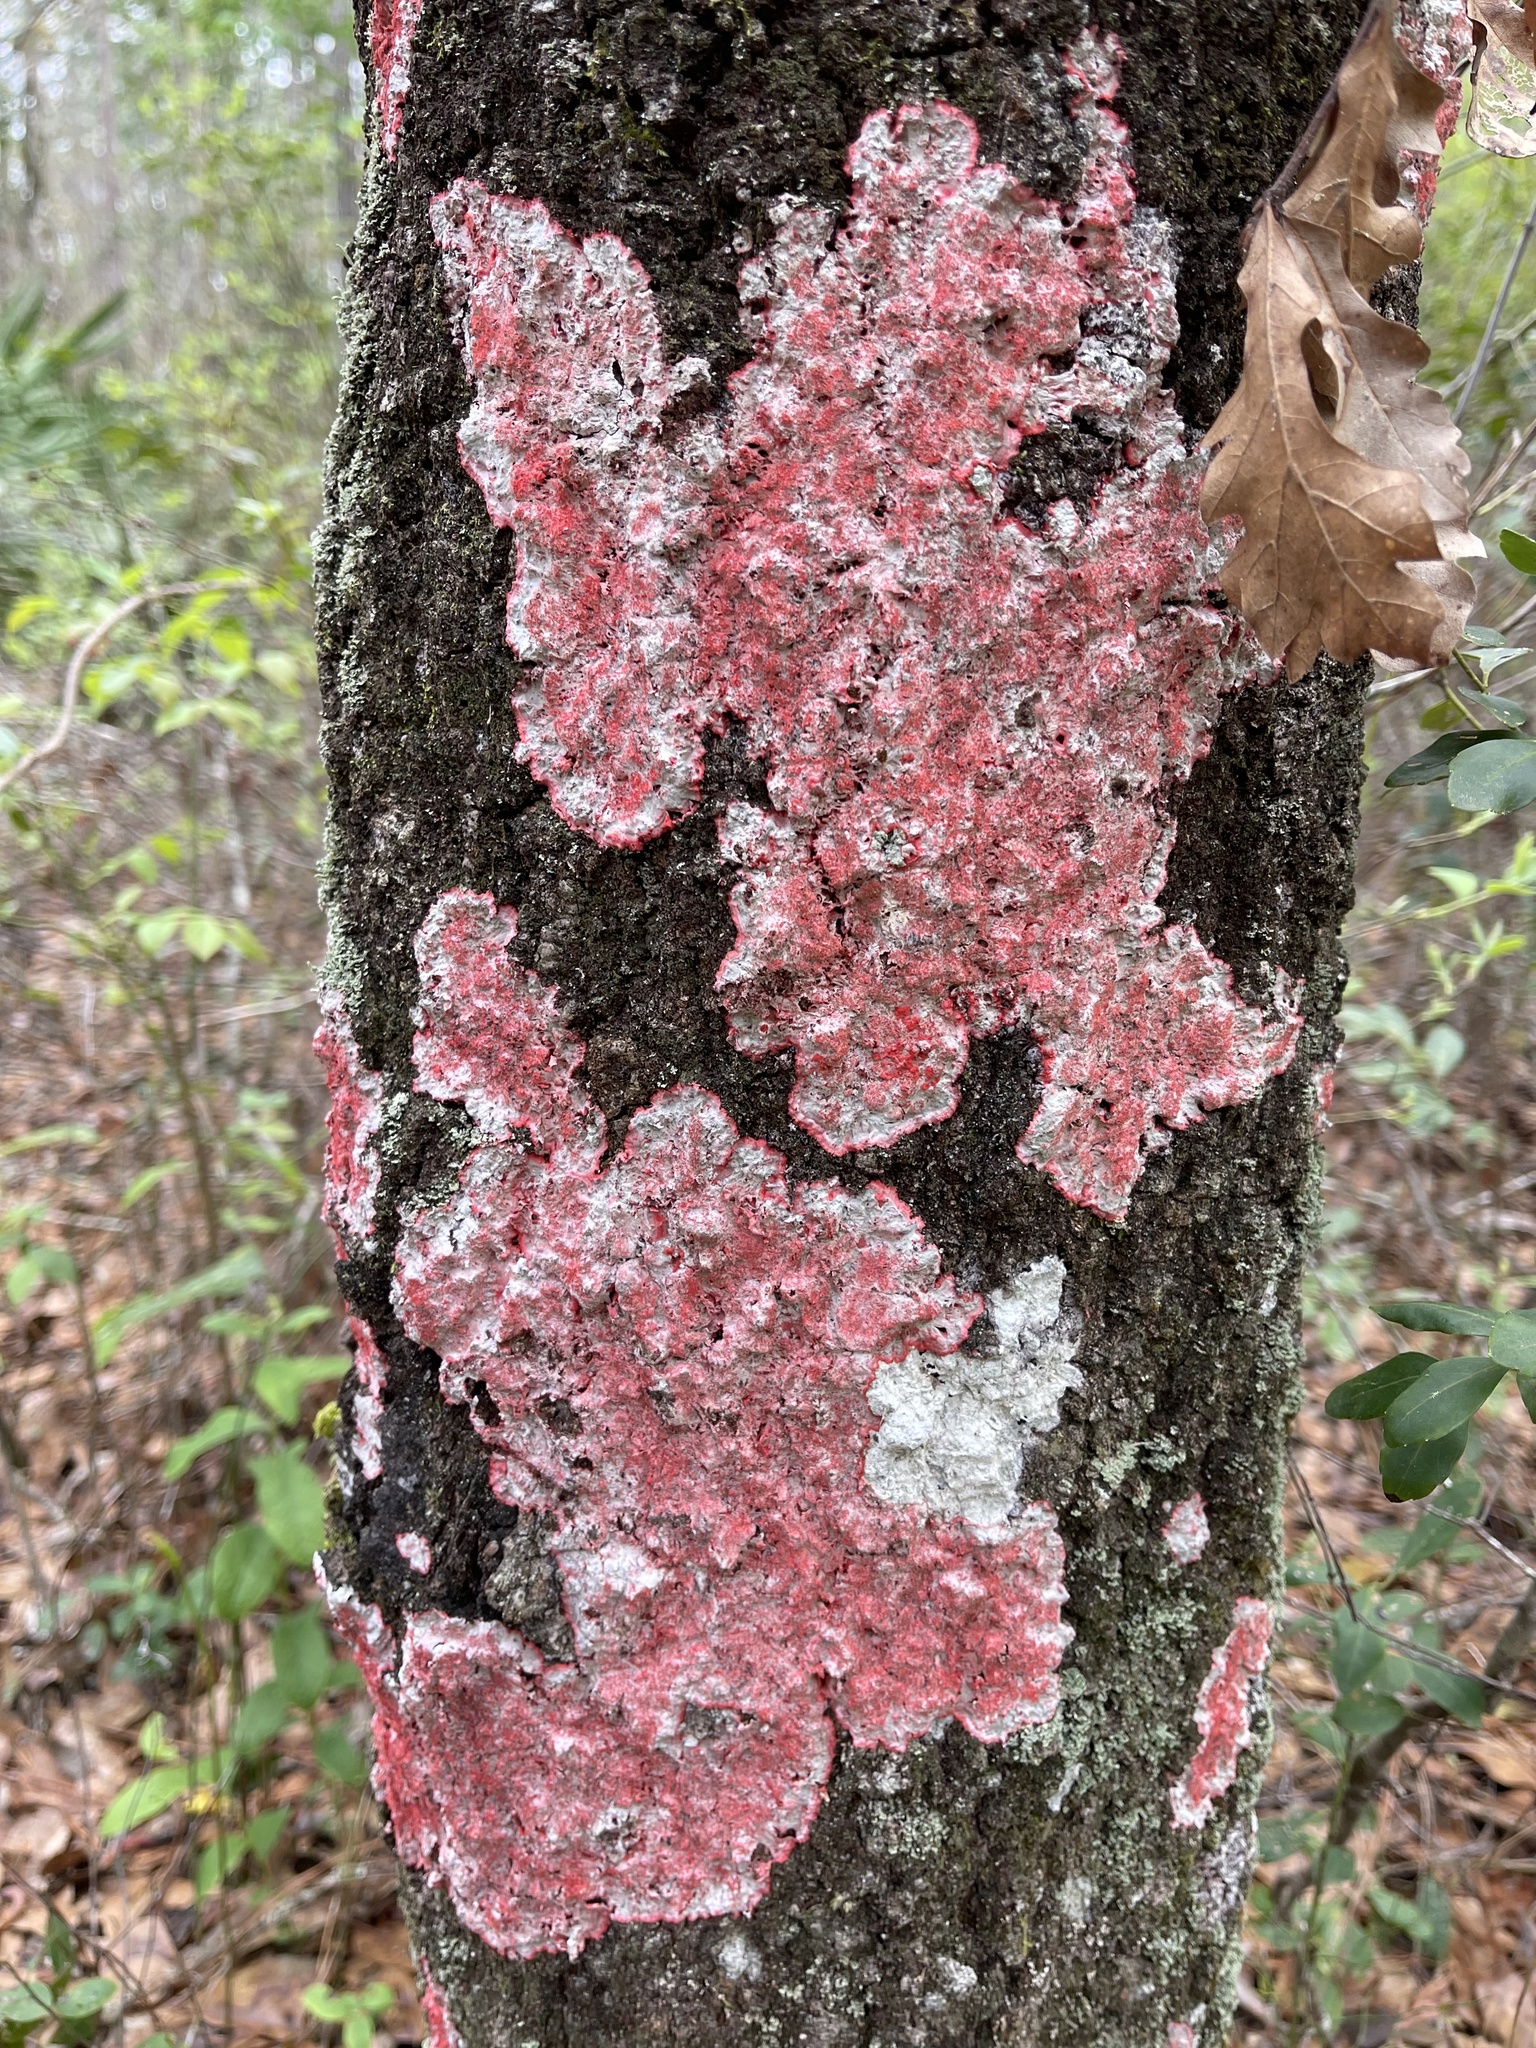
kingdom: Fungi
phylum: Ascomycota
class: Arthoniomycetes
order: Arthoniales
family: Arthoniaceae
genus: Herpothallon
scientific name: Herpothallon rubrocinctum
